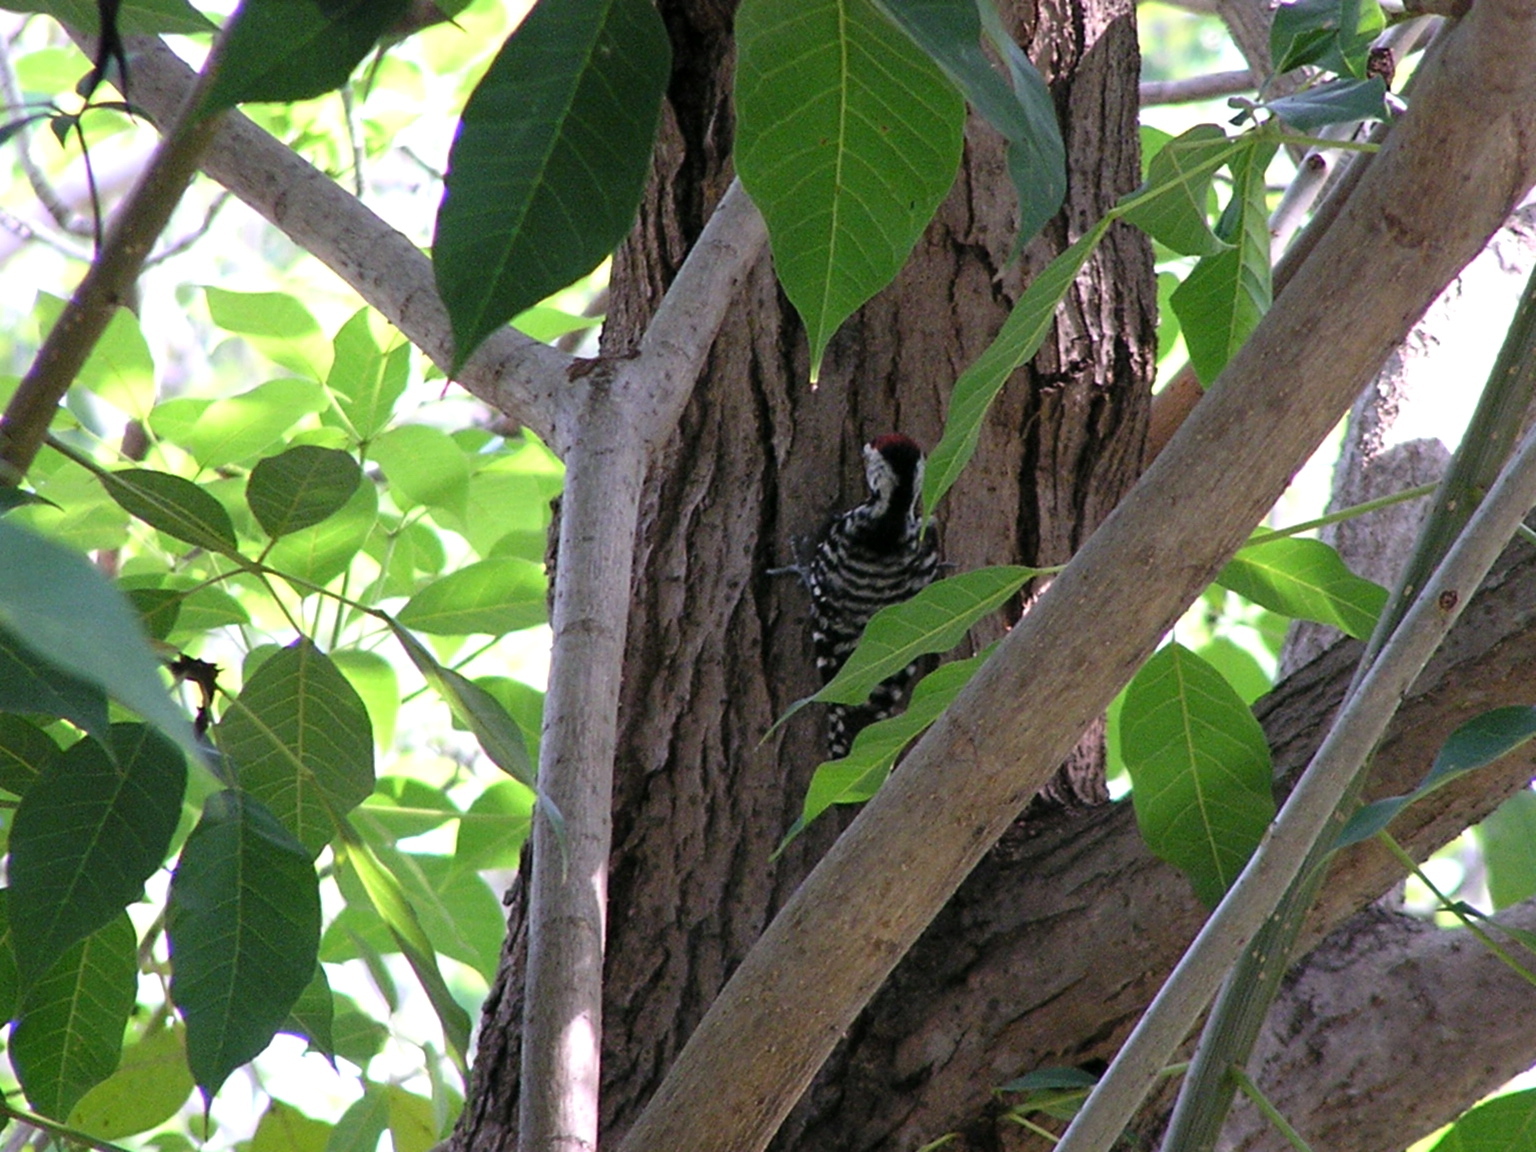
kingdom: Animalia
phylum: Chordata
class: Aves
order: Piciformes
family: Picidae
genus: Dendrocopos
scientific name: Dendrocopos analis
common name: Freckle-breasted woodpecker
